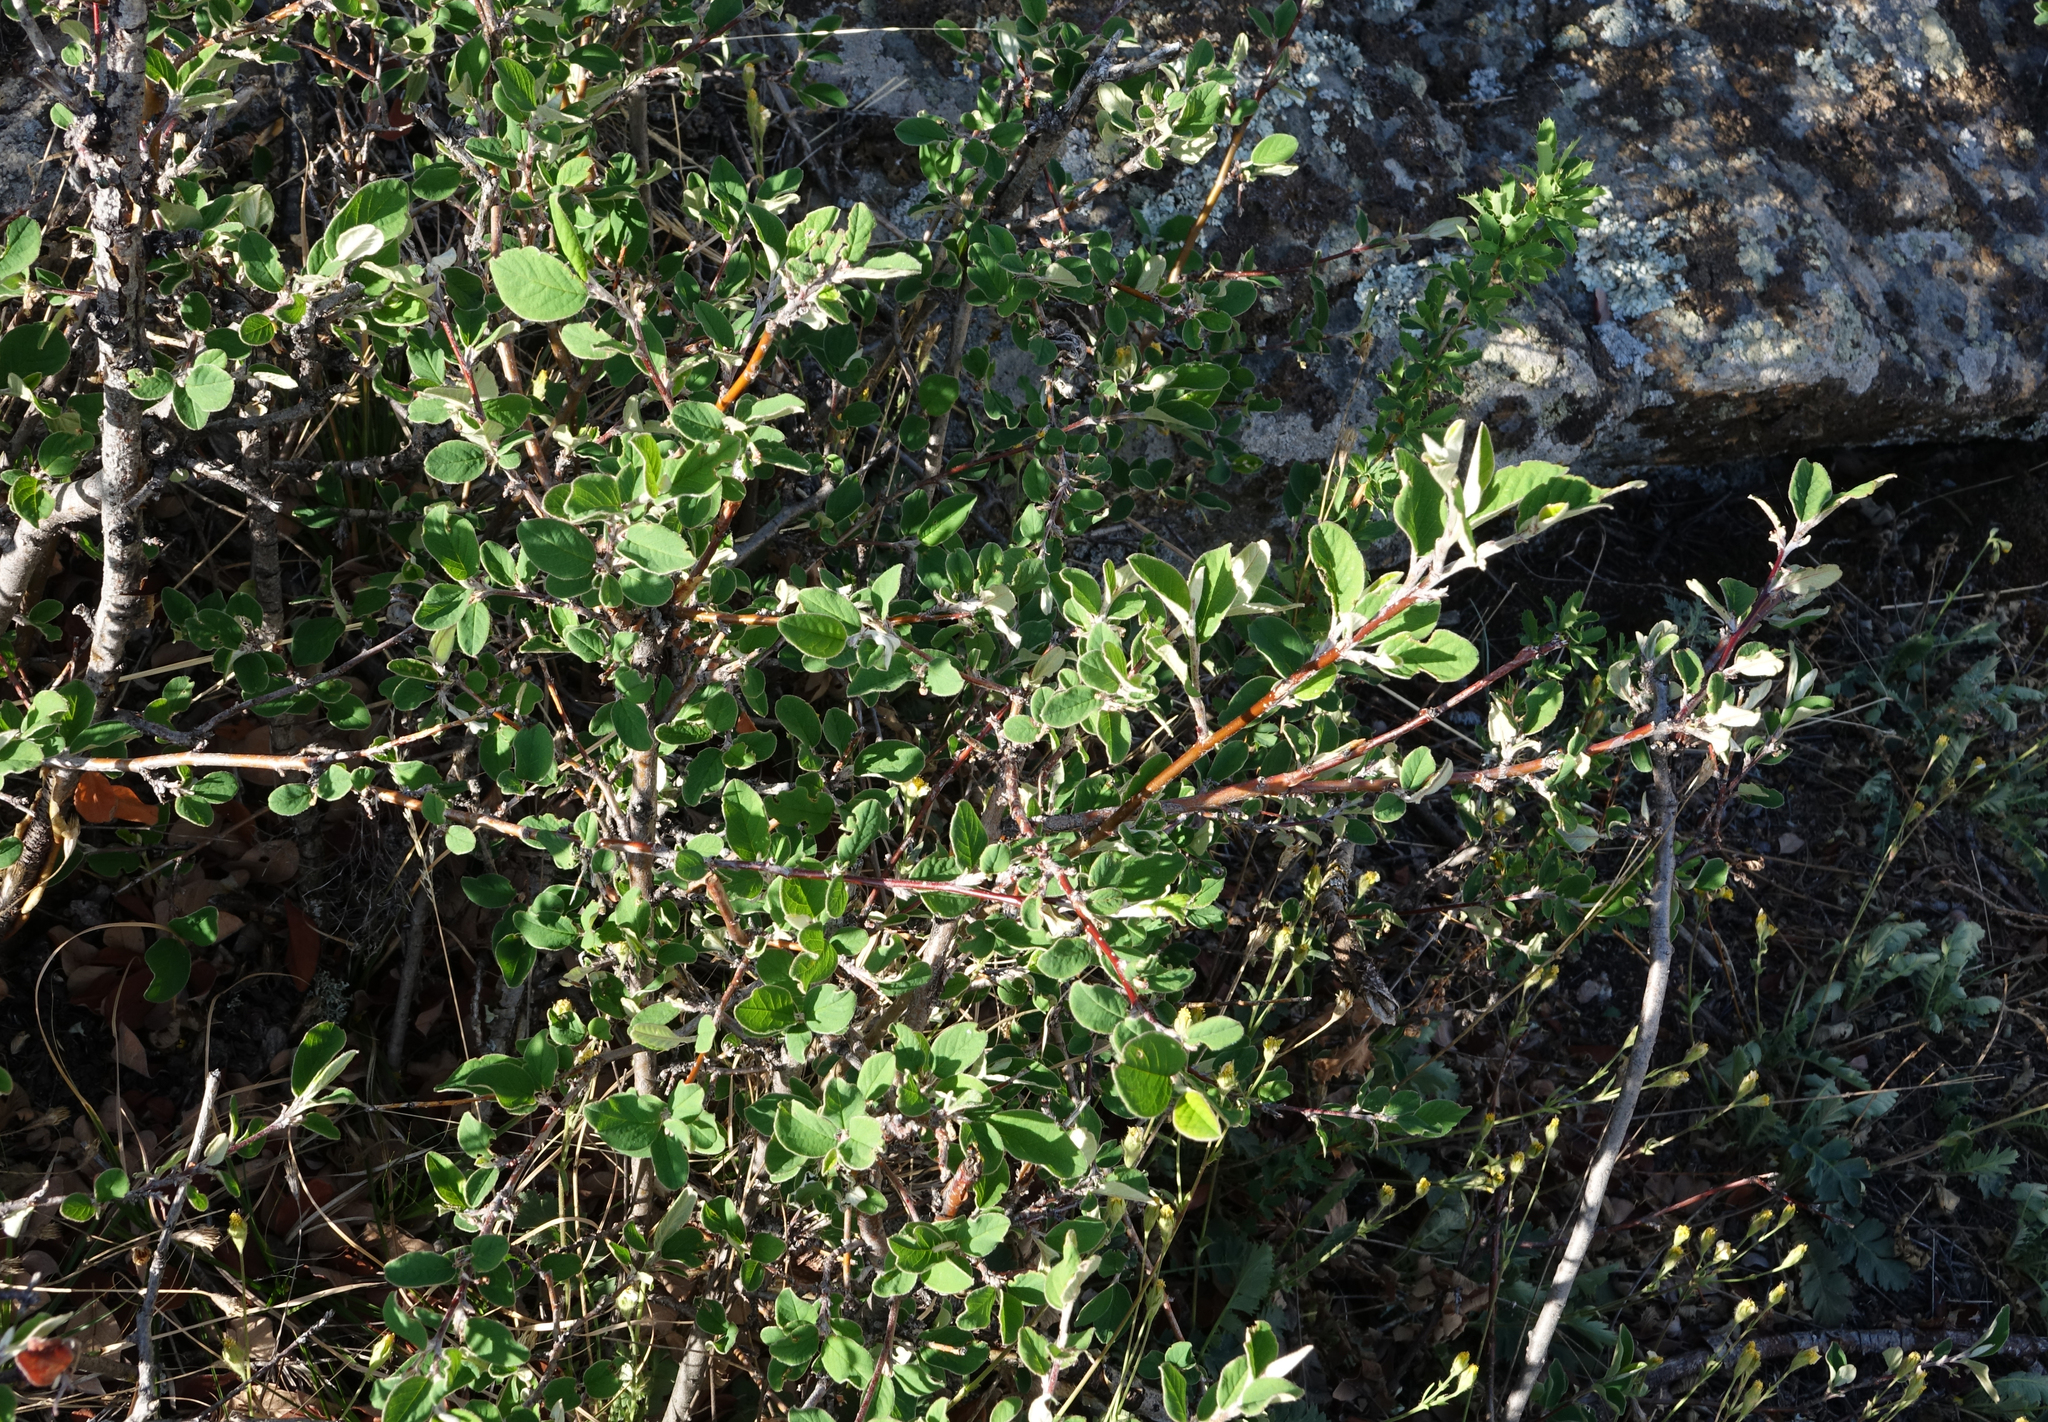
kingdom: Plantae
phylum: Tracheophyta
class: Magnoliopsida
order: Rosales
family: Rosaceae
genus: Geum
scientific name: Geum geoides
